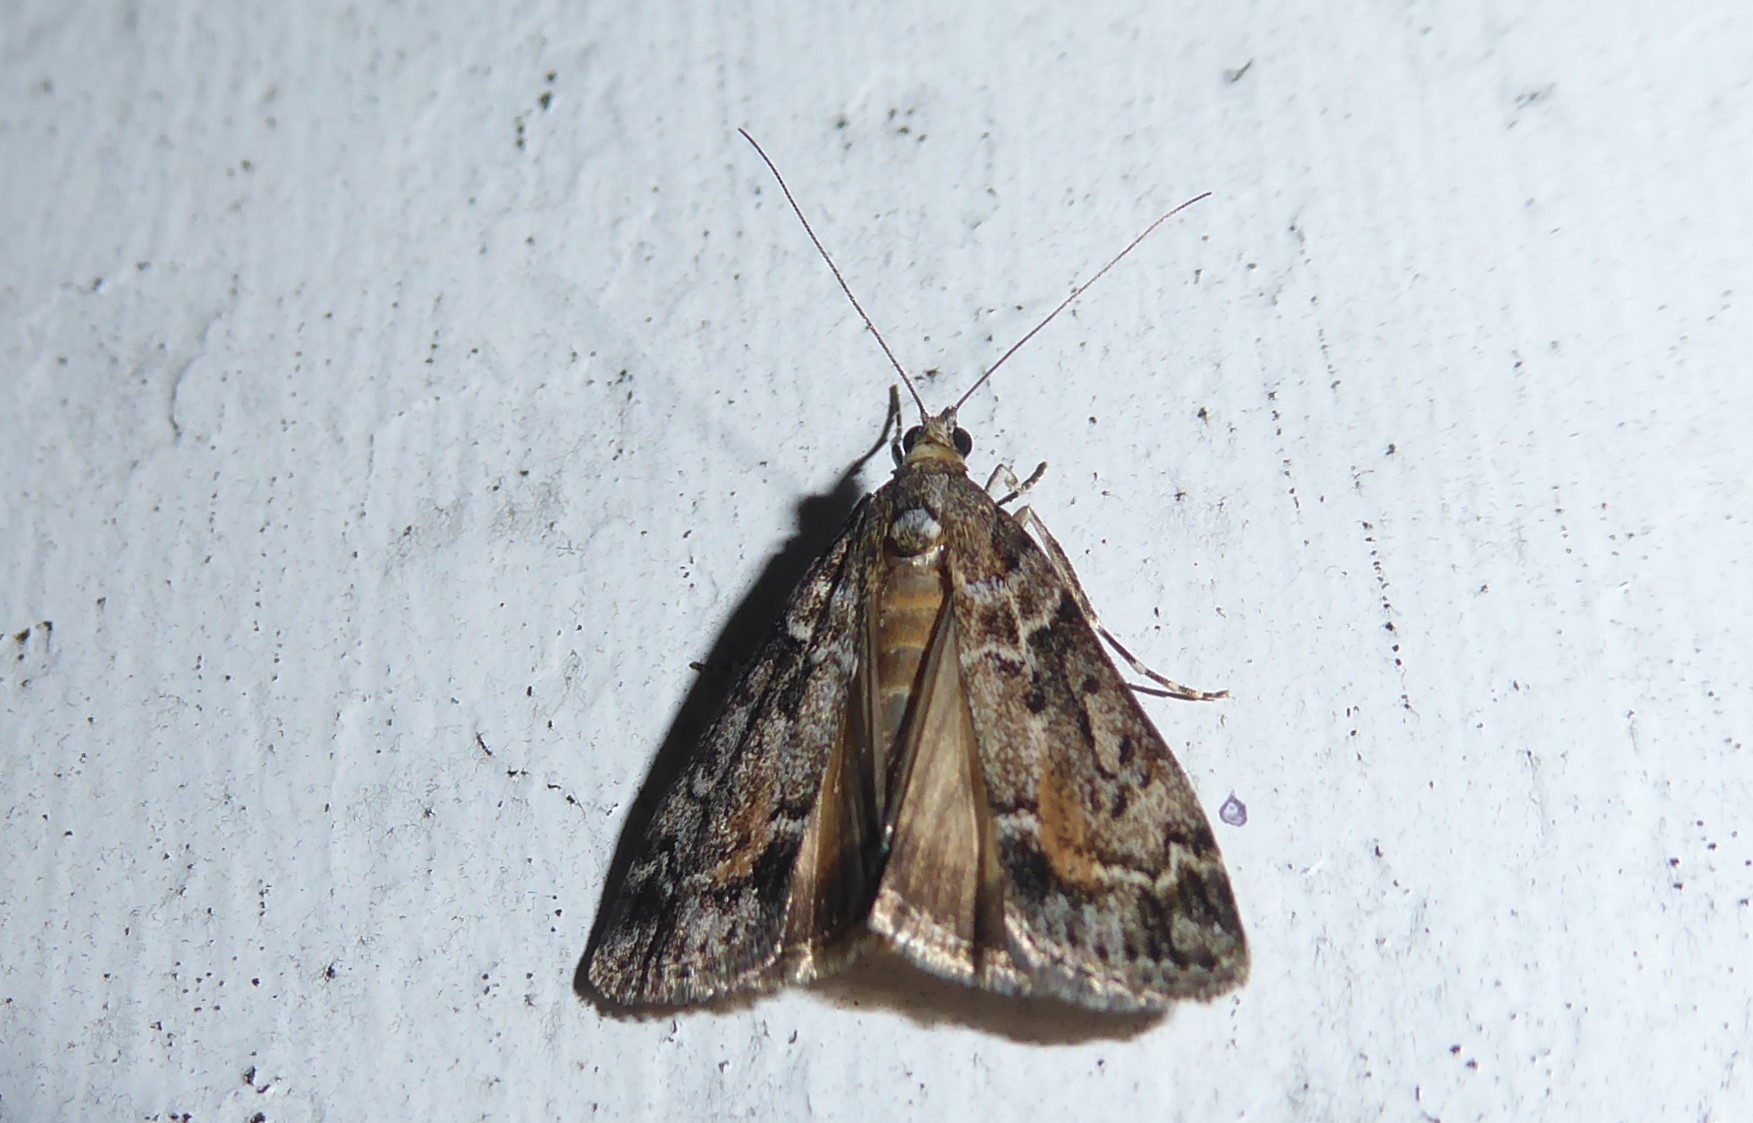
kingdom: Animalia
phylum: Arthropoda
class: Insecta
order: Lepidoptera
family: Crambidae
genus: Eudonia
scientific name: Eudonia submarginalis
